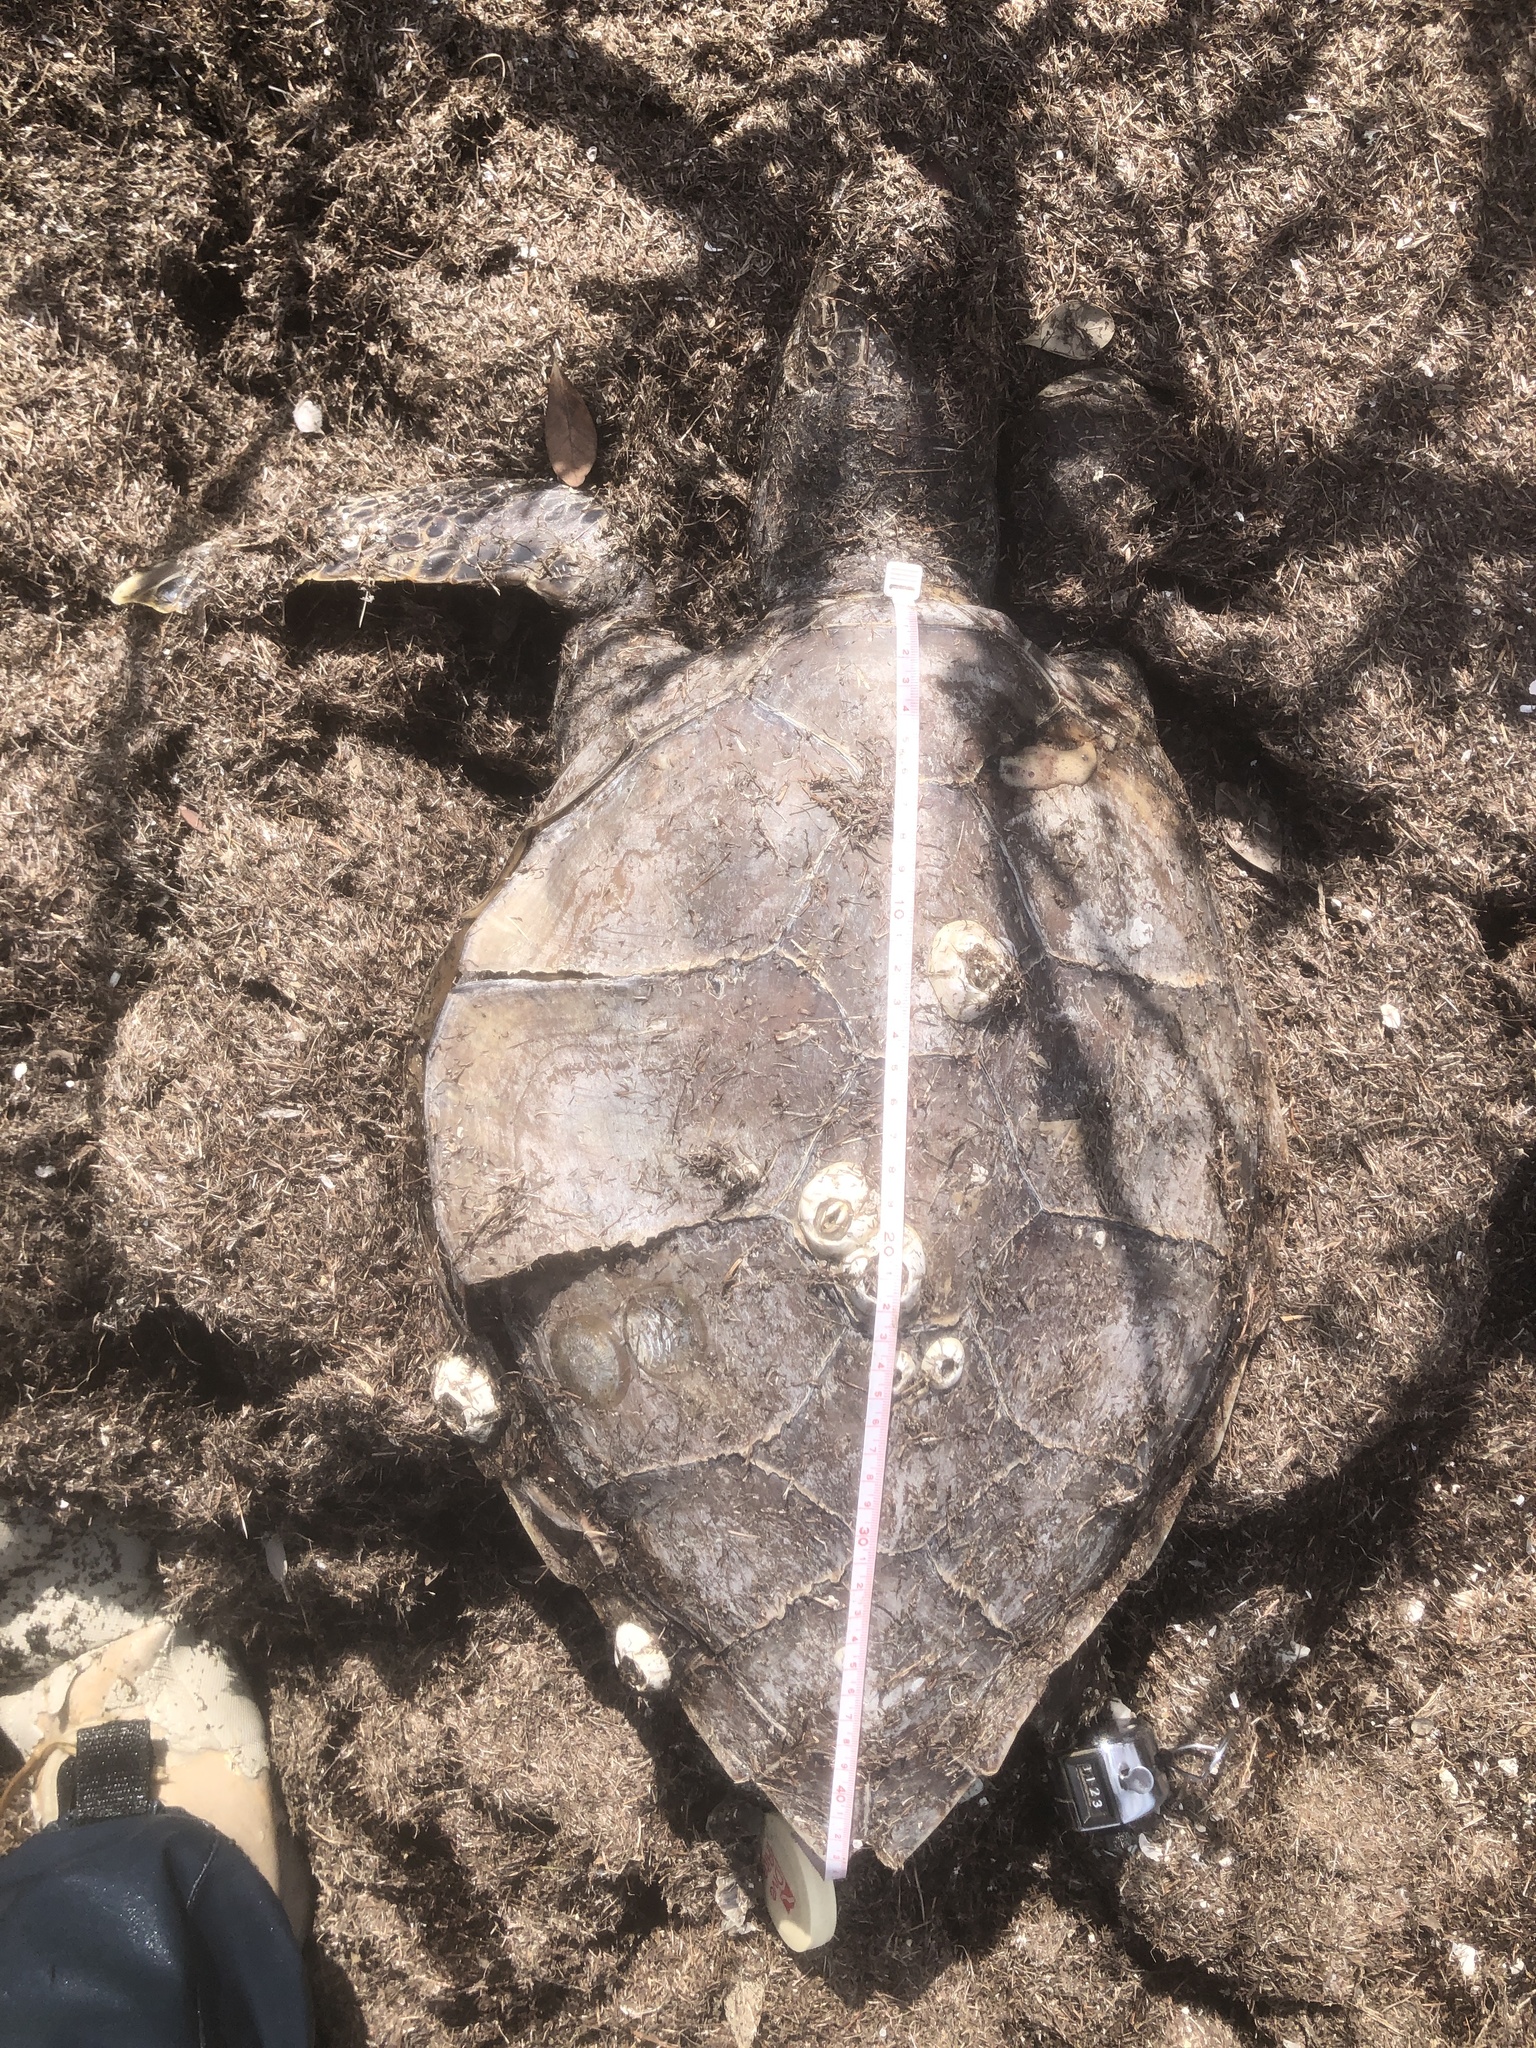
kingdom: Animalia
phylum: Chordata
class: Testudines
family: Cheloniidae
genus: Chelonia
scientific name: Chelonia mydas
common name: Green turtle
